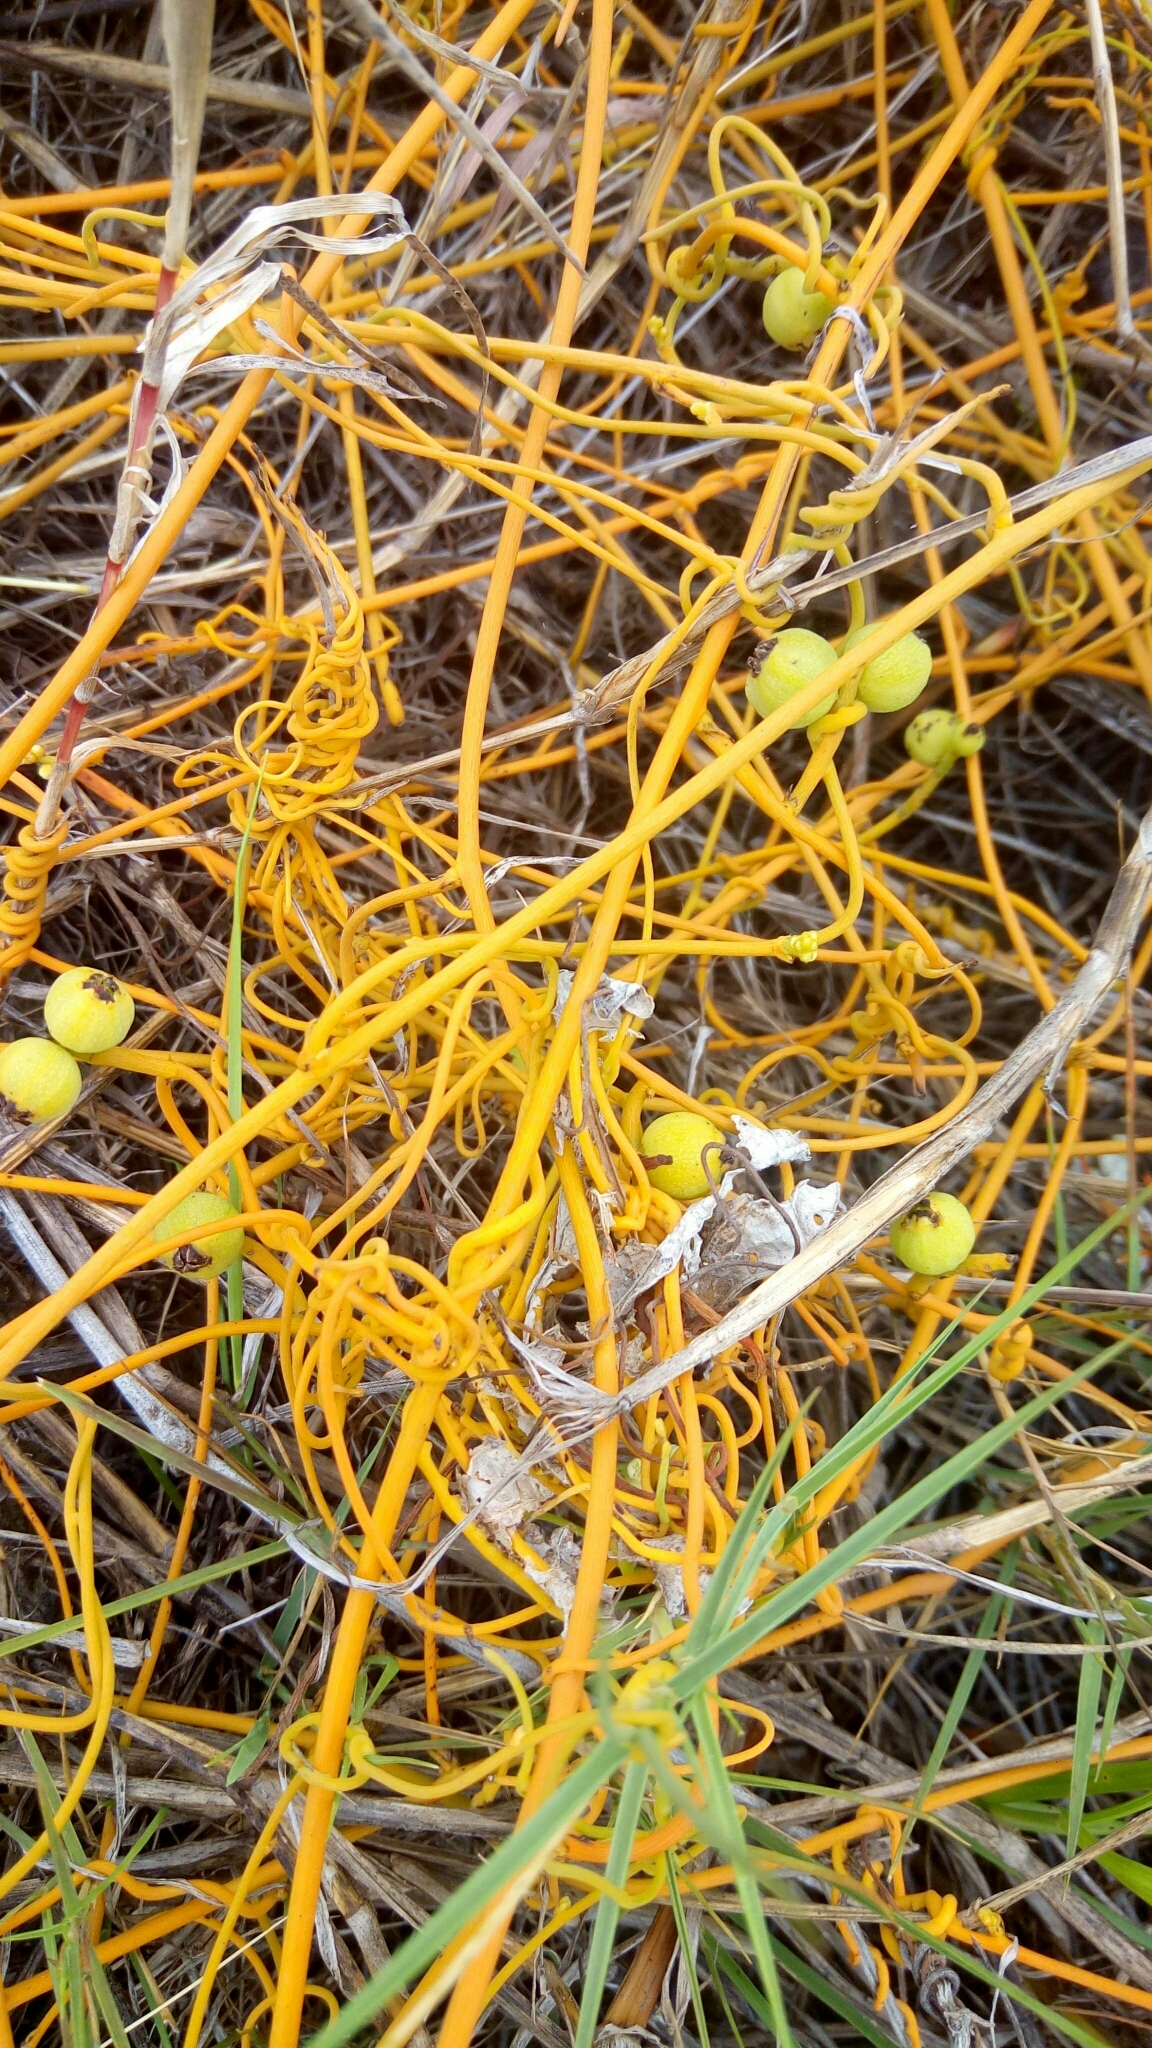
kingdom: Plantae
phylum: Tracheophyta
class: Magnoliopsida
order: Laurales
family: Lauraceae
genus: Cassytha
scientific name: Cassytha filiformis
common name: Dodder-laurel
